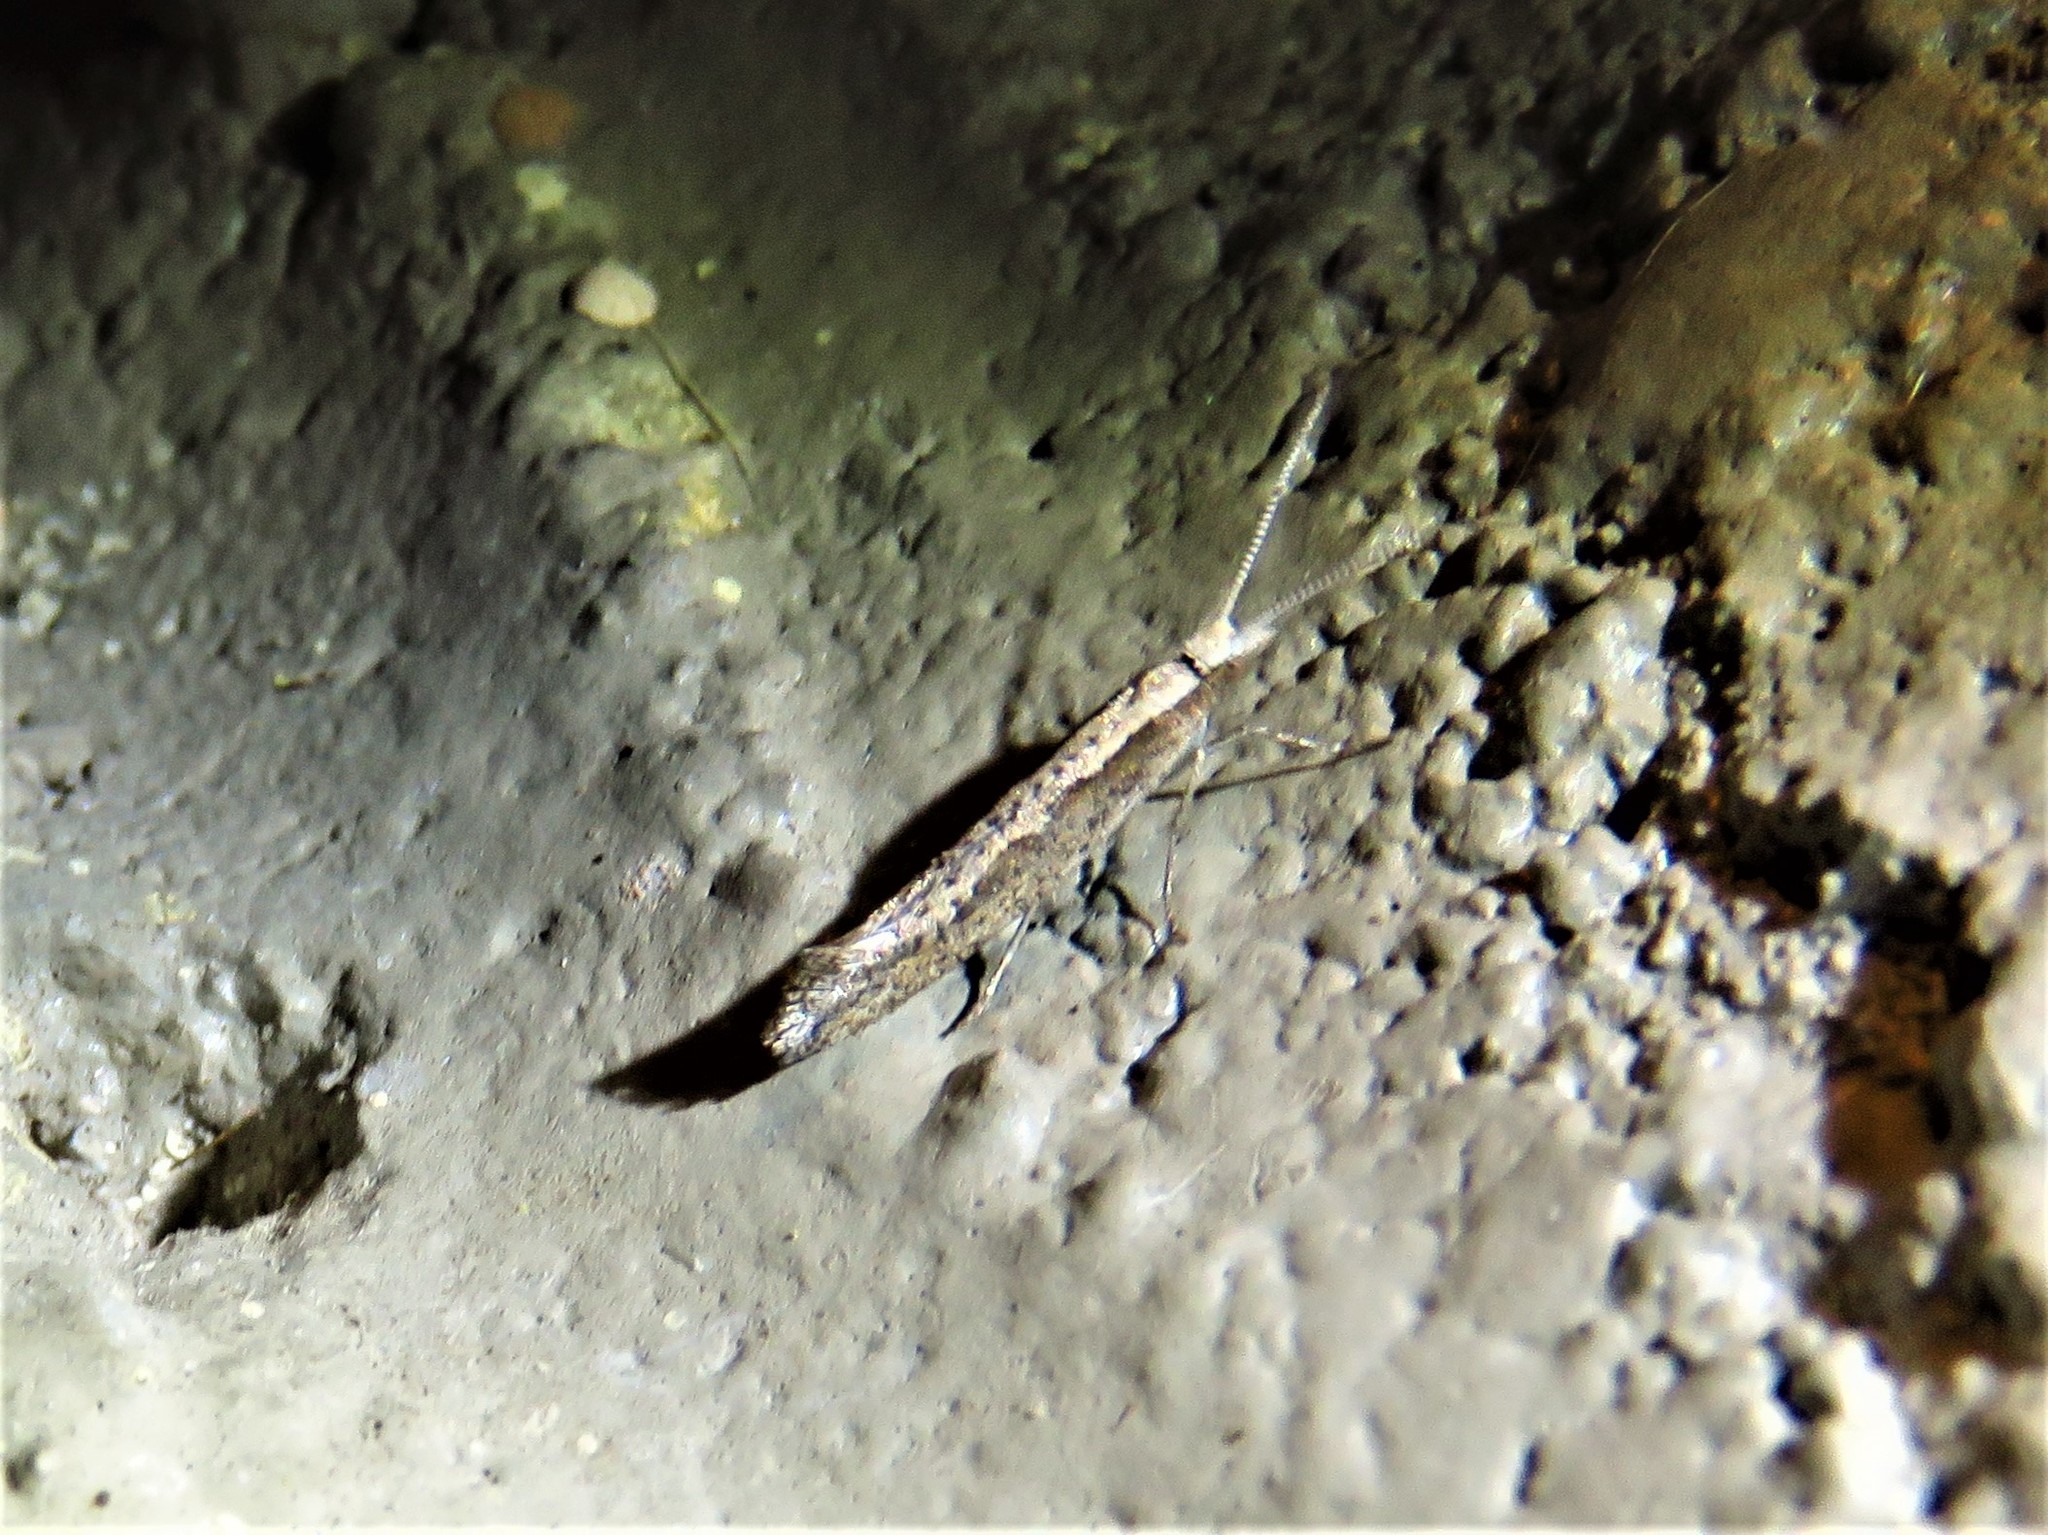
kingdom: Animalia
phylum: Arthropoda
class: Insecta
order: Lepidoptera
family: Plutellidae
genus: Plutella
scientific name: Plutella xylostella
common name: Diamond-back moth
